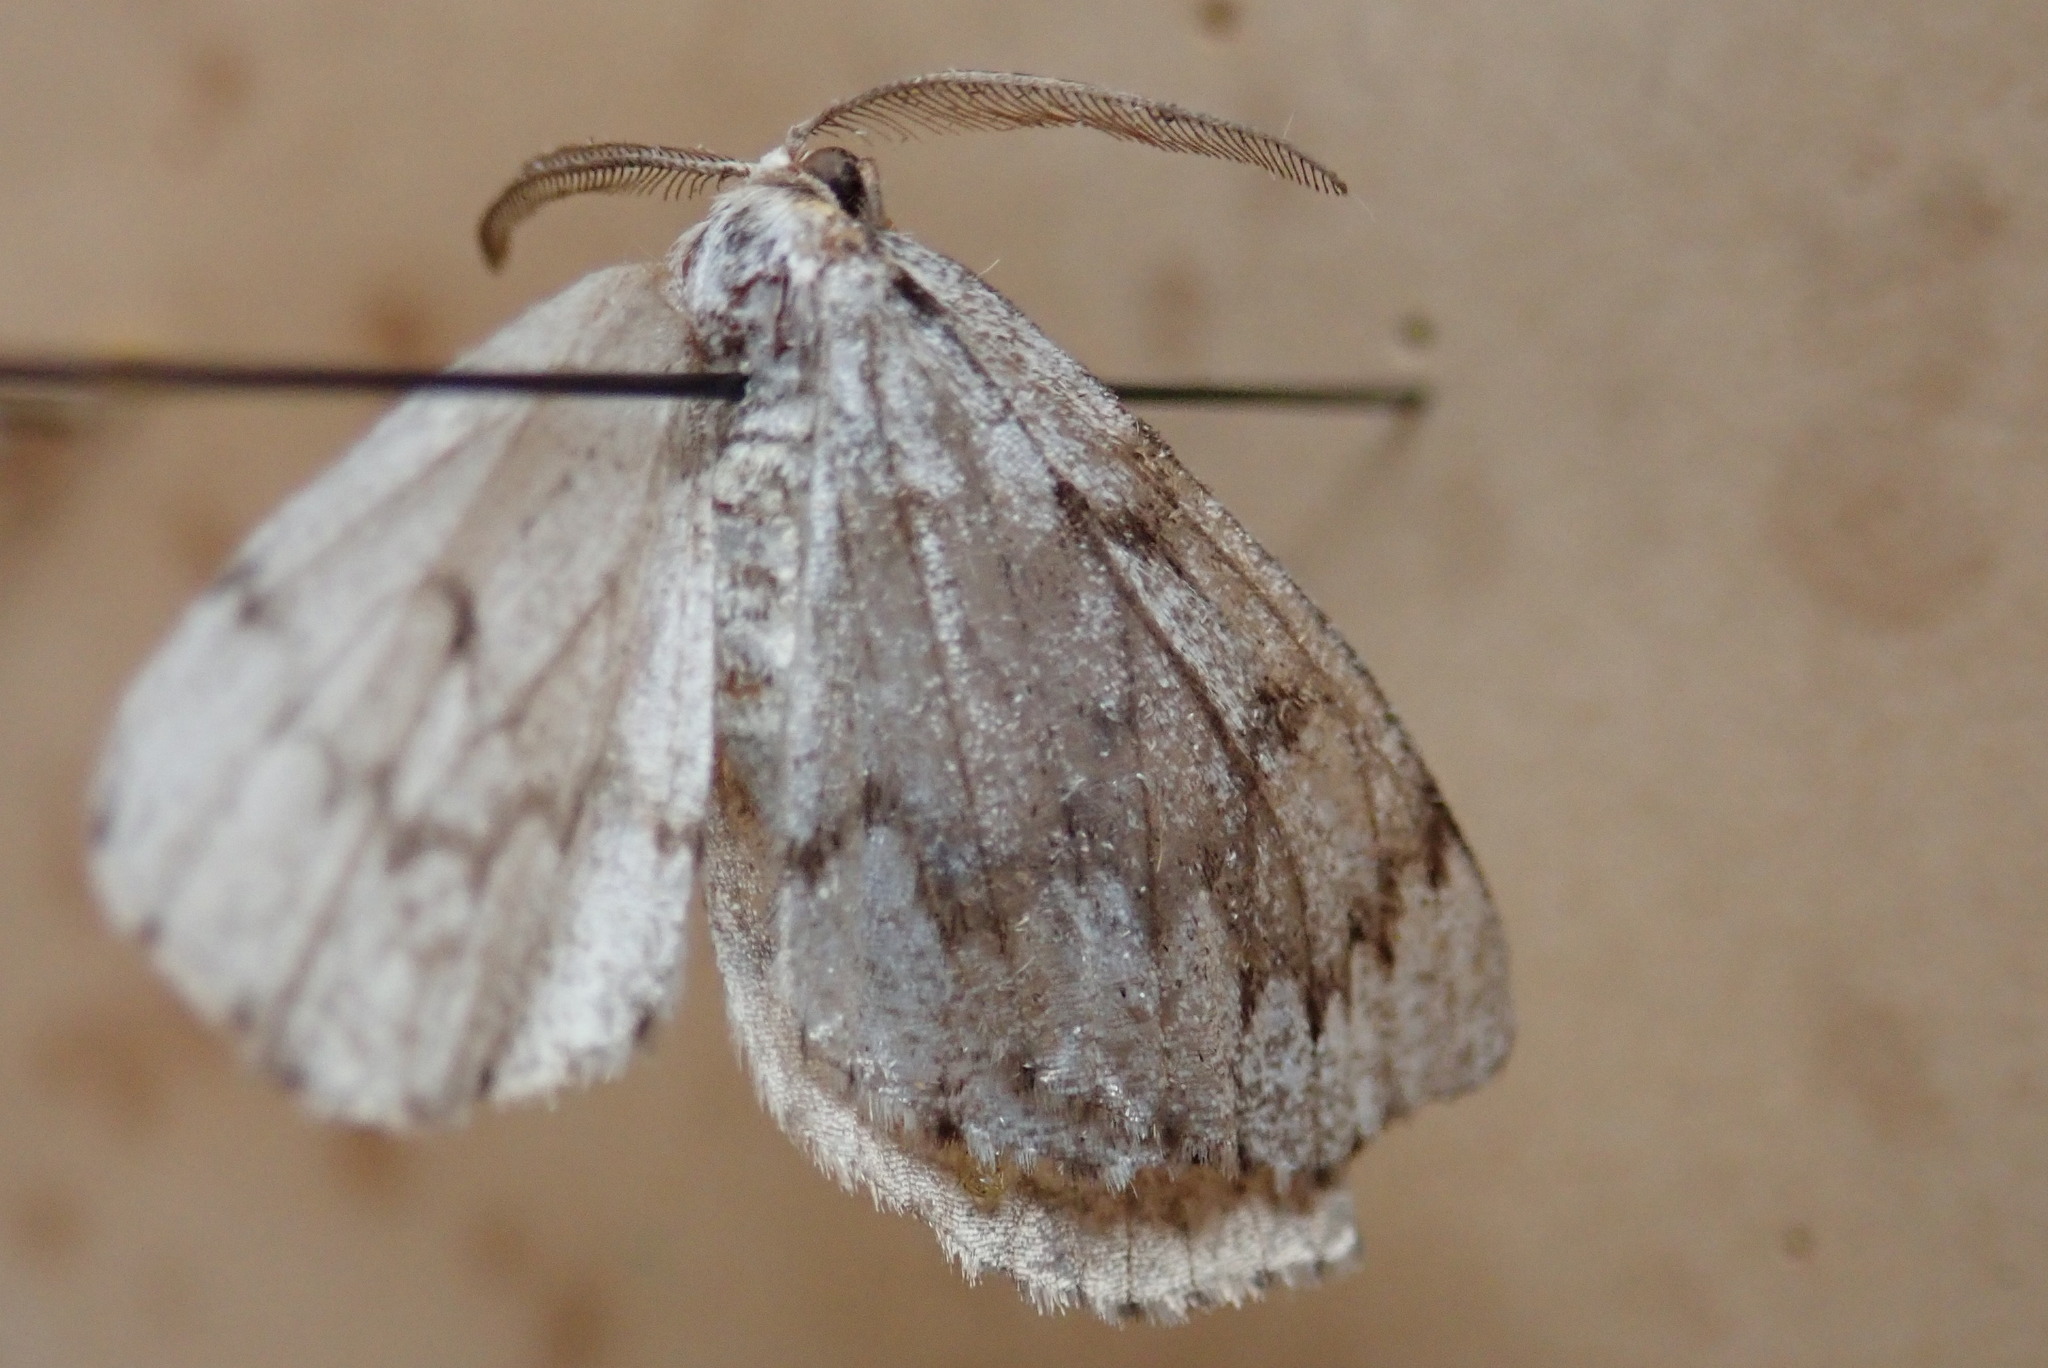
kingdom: Animalia
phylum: Arthropoda
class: Insecta
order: Lepidoptera
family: Geometridae
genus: Nepytia
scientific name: Nepytia canosaria
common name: False hemlock looper
